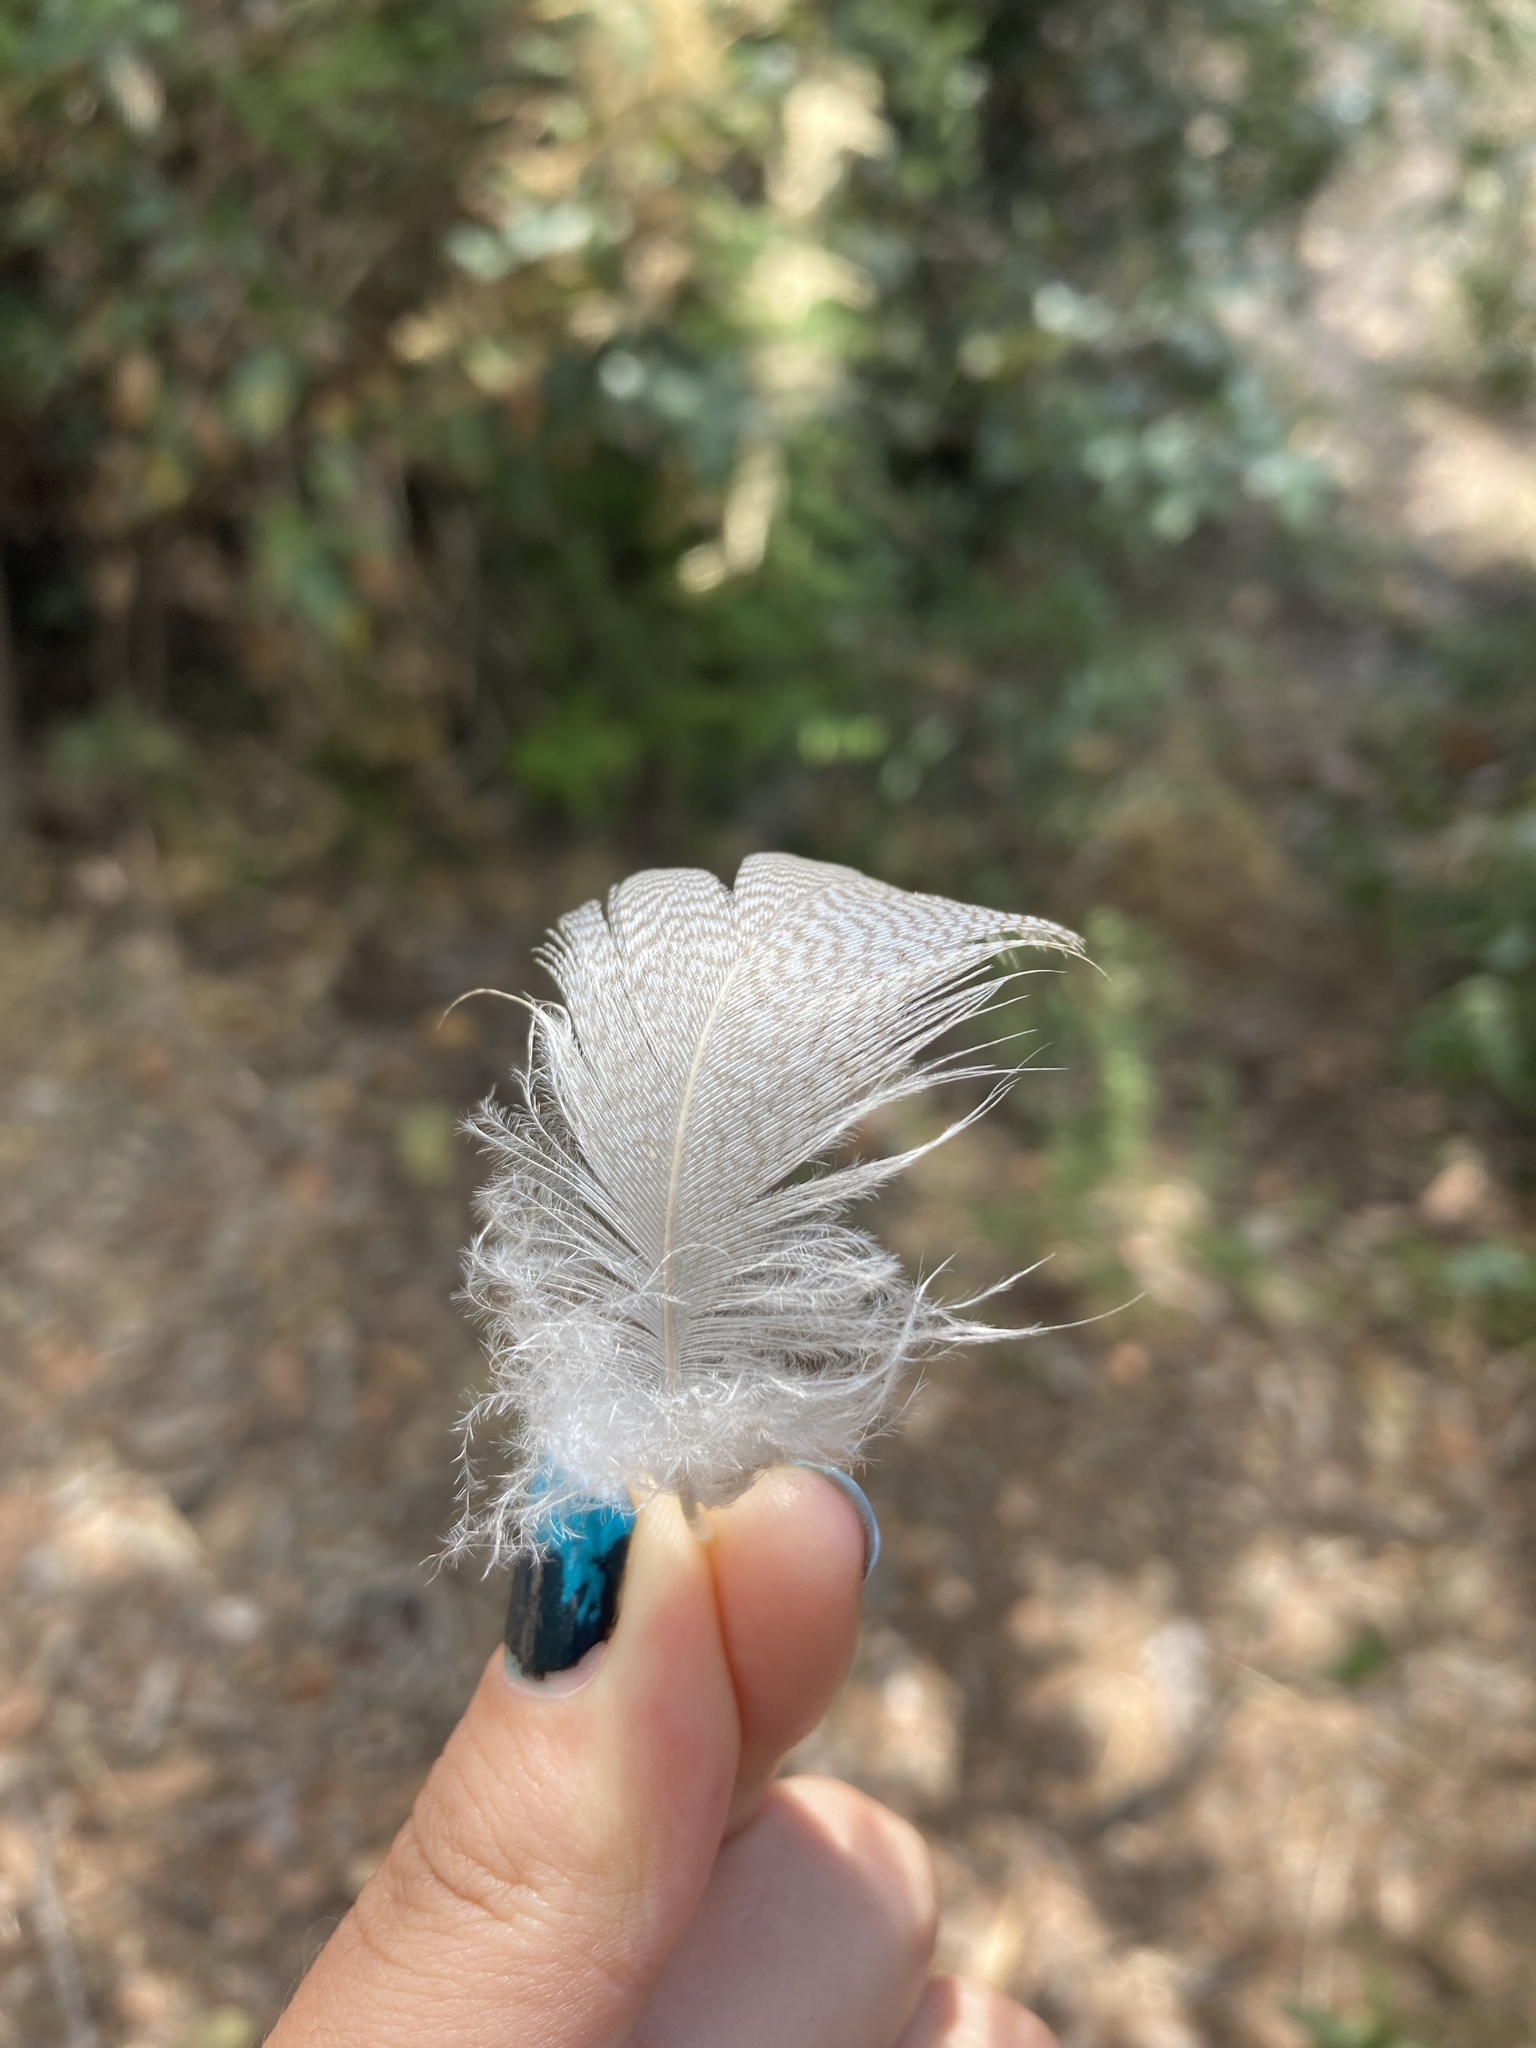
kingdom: Animalia
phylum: Chordata
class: Aves
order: Anseriformes
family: Anatidae
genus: Anas
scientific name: Anas platyrhynchos
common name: Mallard
